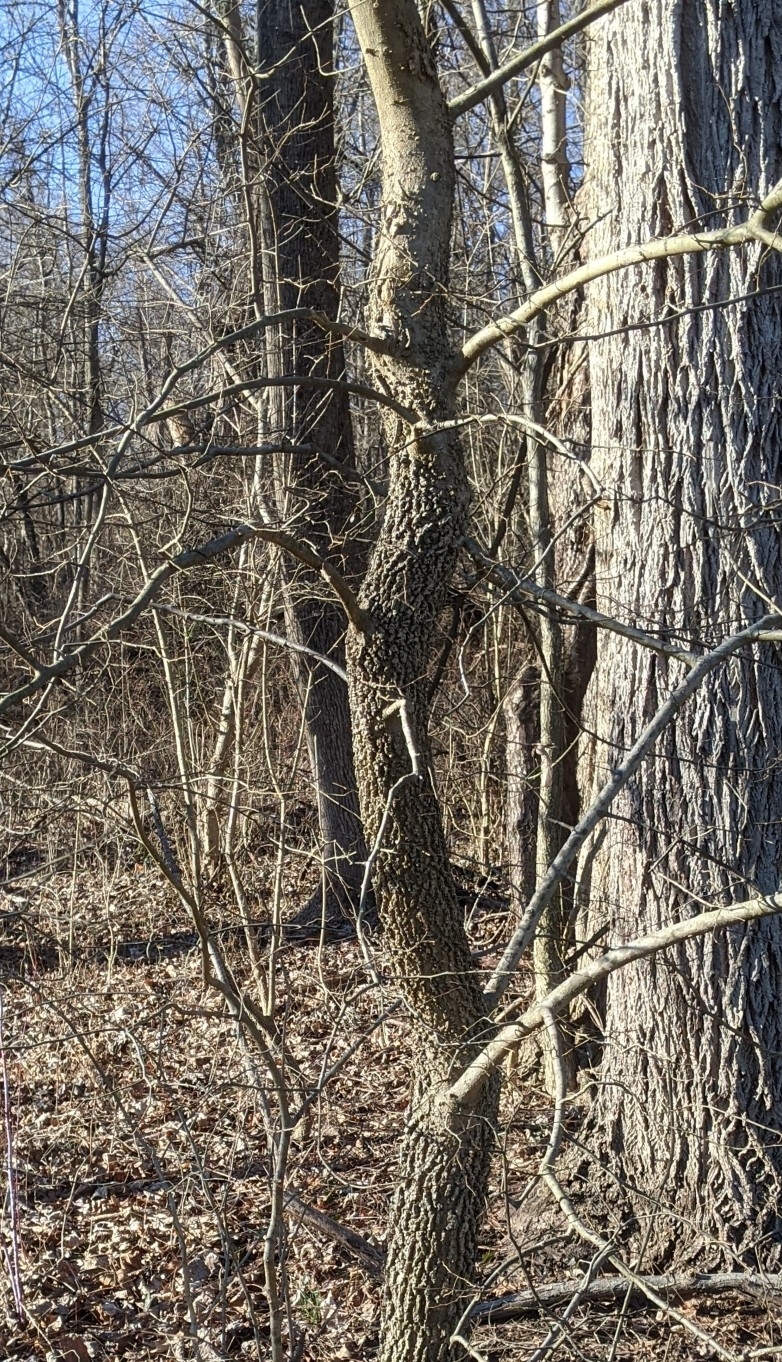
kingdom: Plantae
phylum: Tracheophyta
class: Magnoliopsida
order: Rosales
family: Cannabaceae
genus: Celtis
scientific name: Celtis occidentalis
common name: Common hackberry
